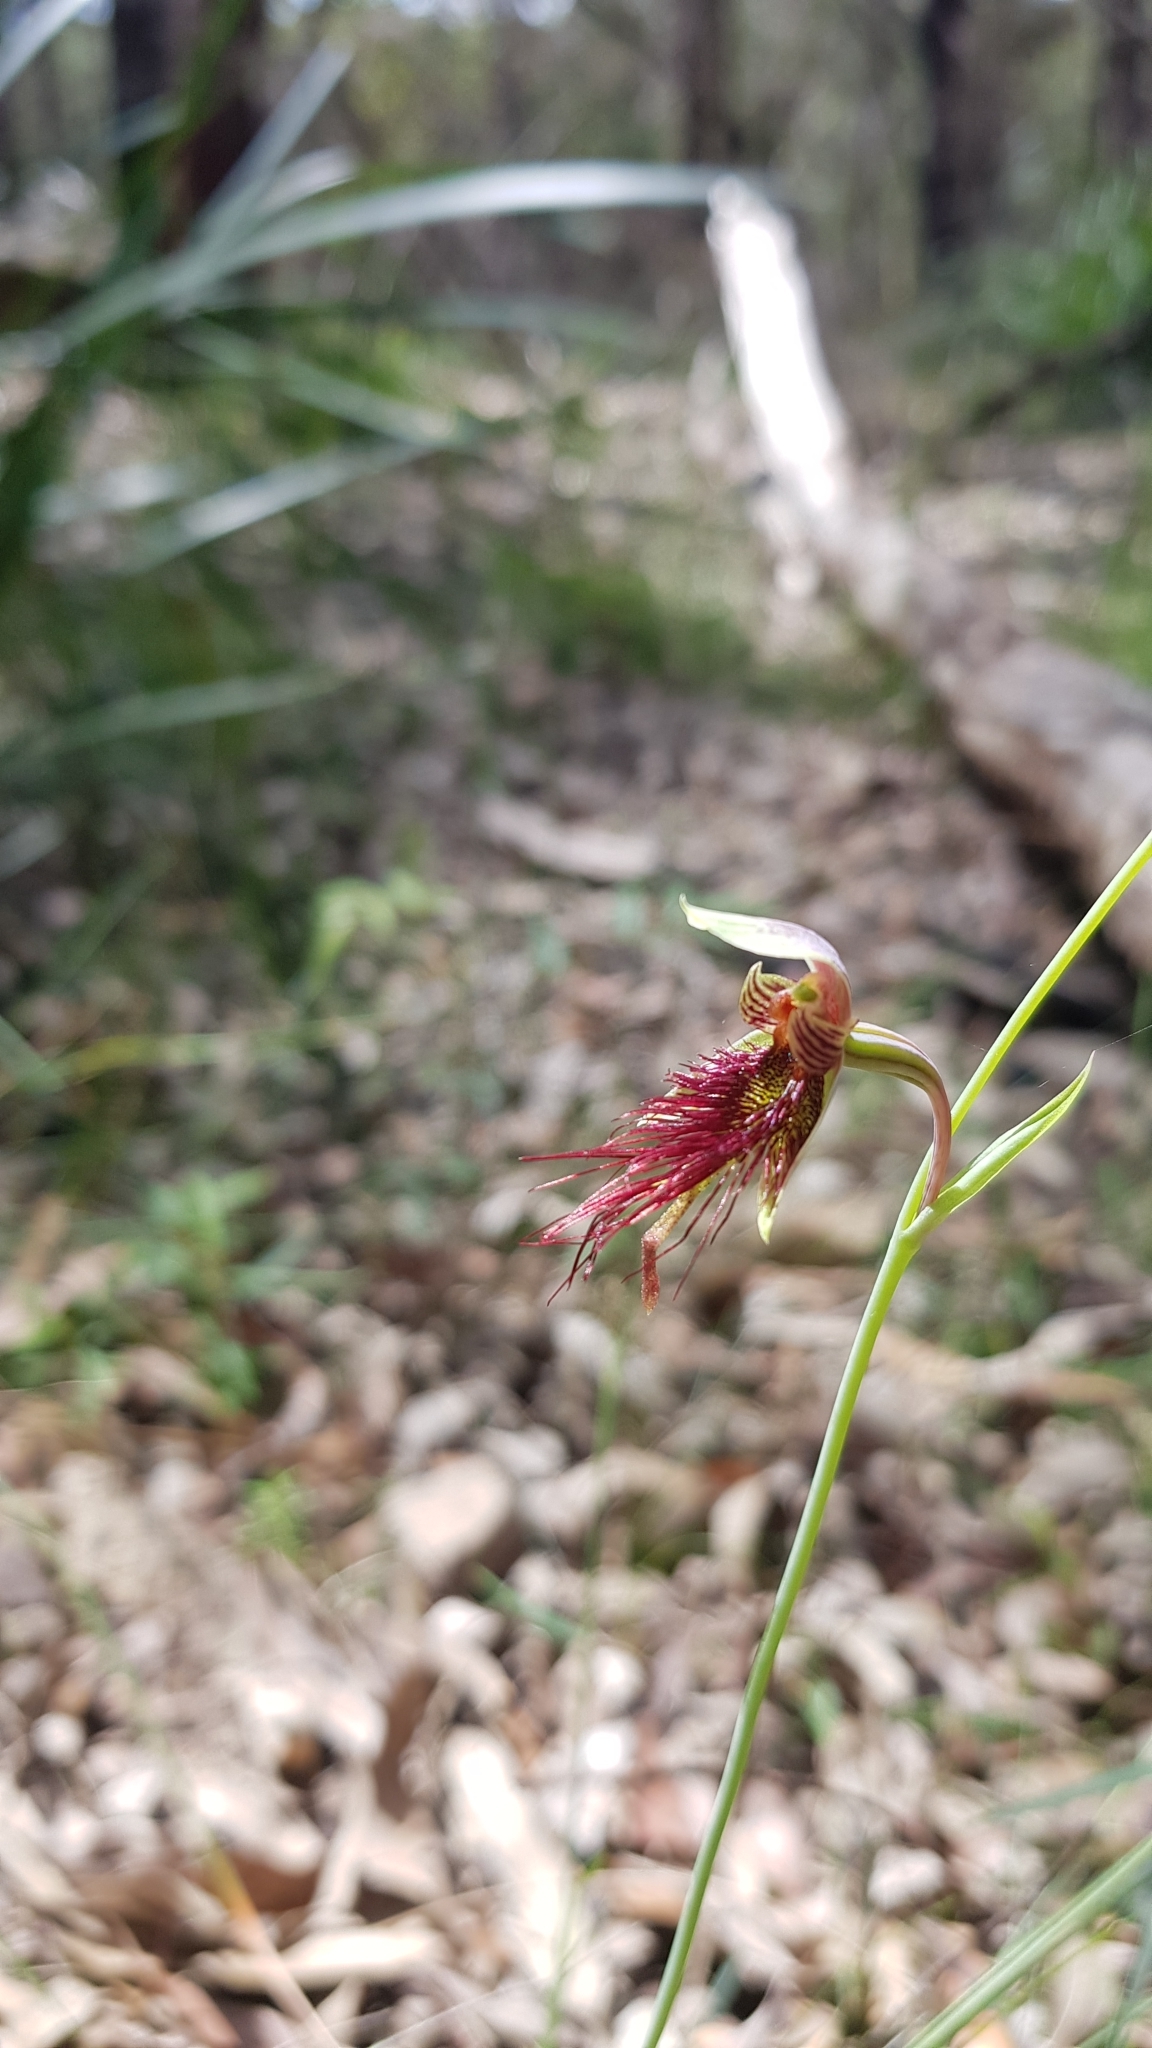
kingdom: Plantae
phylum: Tracheophyta
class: Liliopsida
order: Asparagales
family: Orchidaceae
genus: Calochilus
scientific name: Calochilus paludosus
